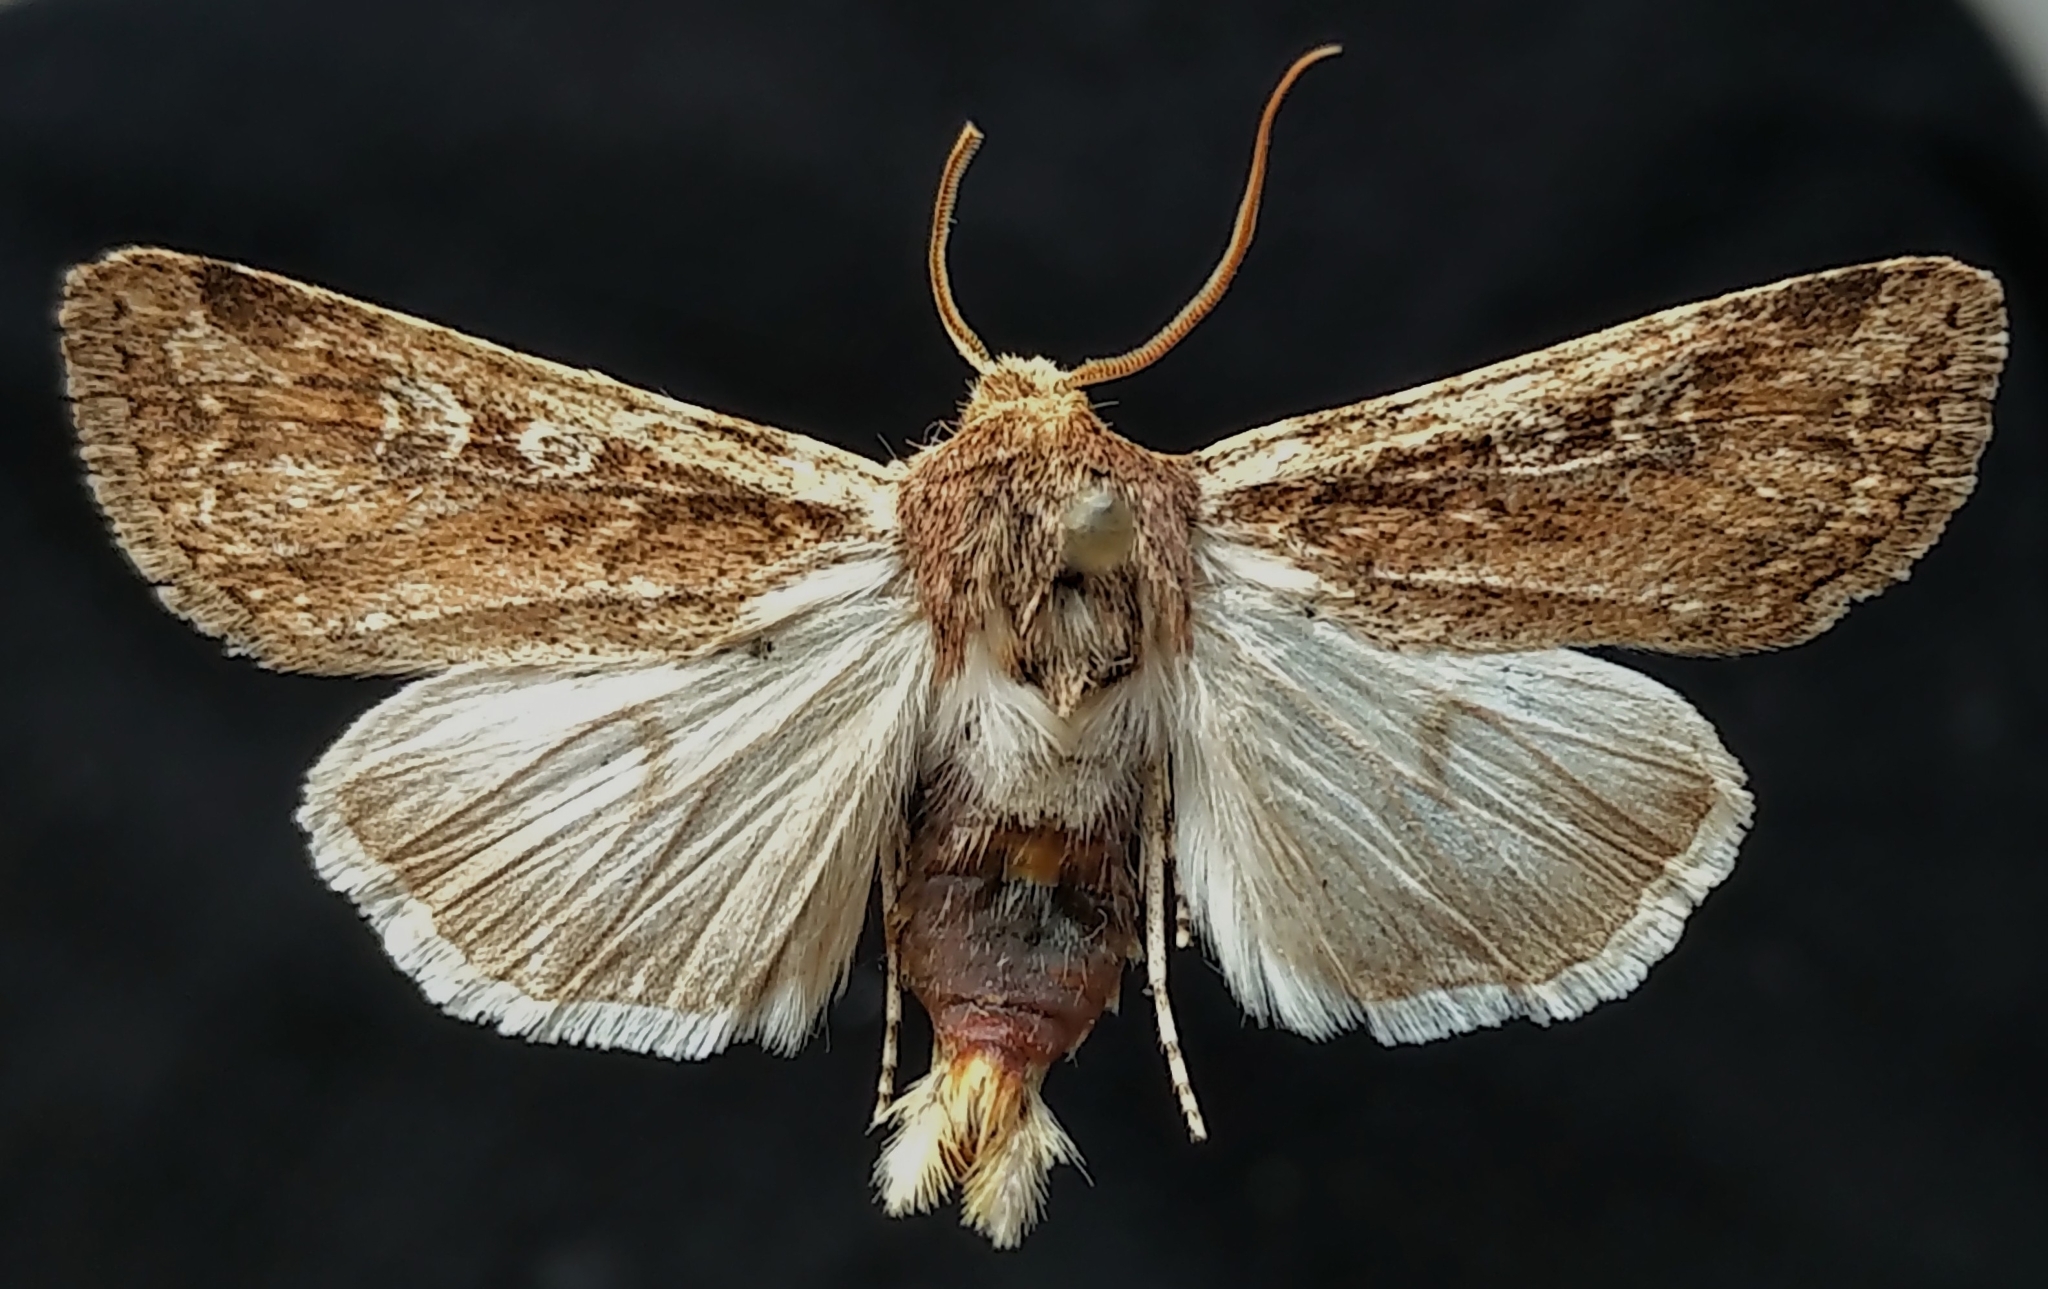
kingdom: Animalia
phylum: Arthropoda
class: Insecta
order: Lepidoptera
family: Noctuidae
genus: Euxoa
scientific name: Euxoa aurulenta
